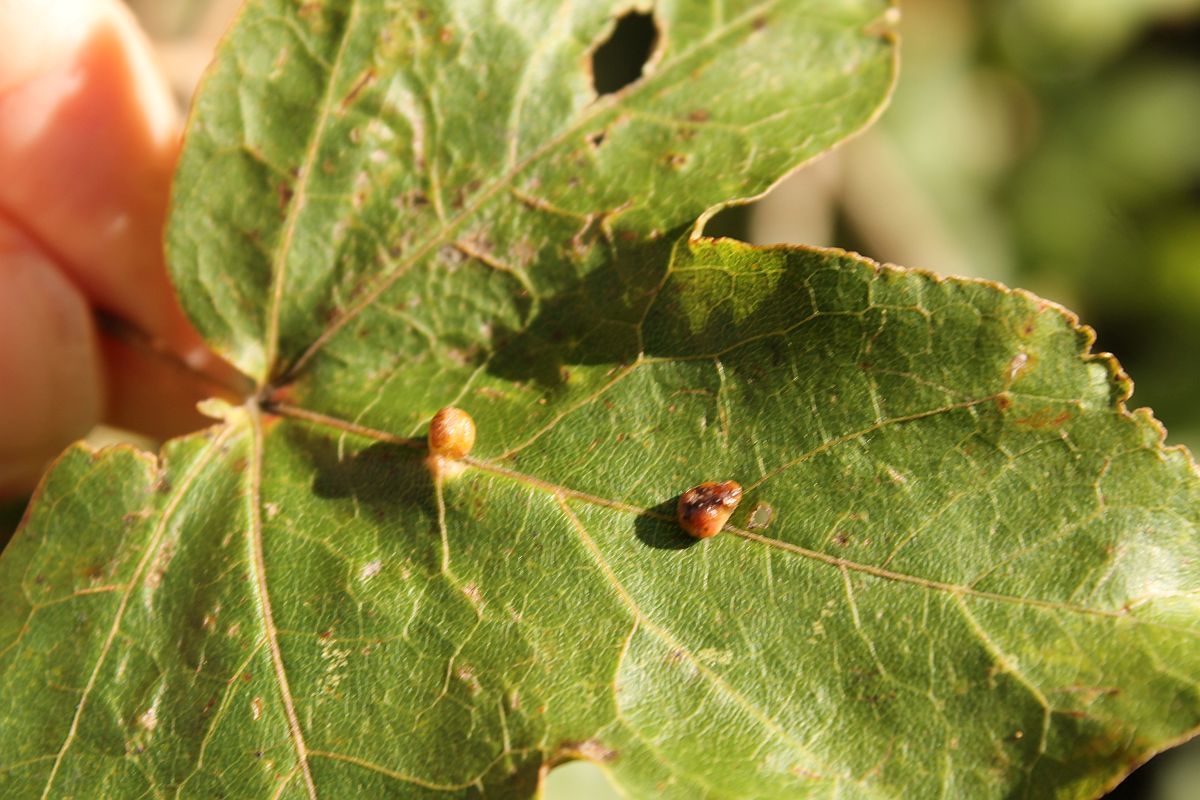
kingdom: Animalia
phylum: Arthropoda
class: Arachnida
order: Trombidiformes
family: Eriophyidae
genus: Aceria
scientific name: Aceria macrochelus
